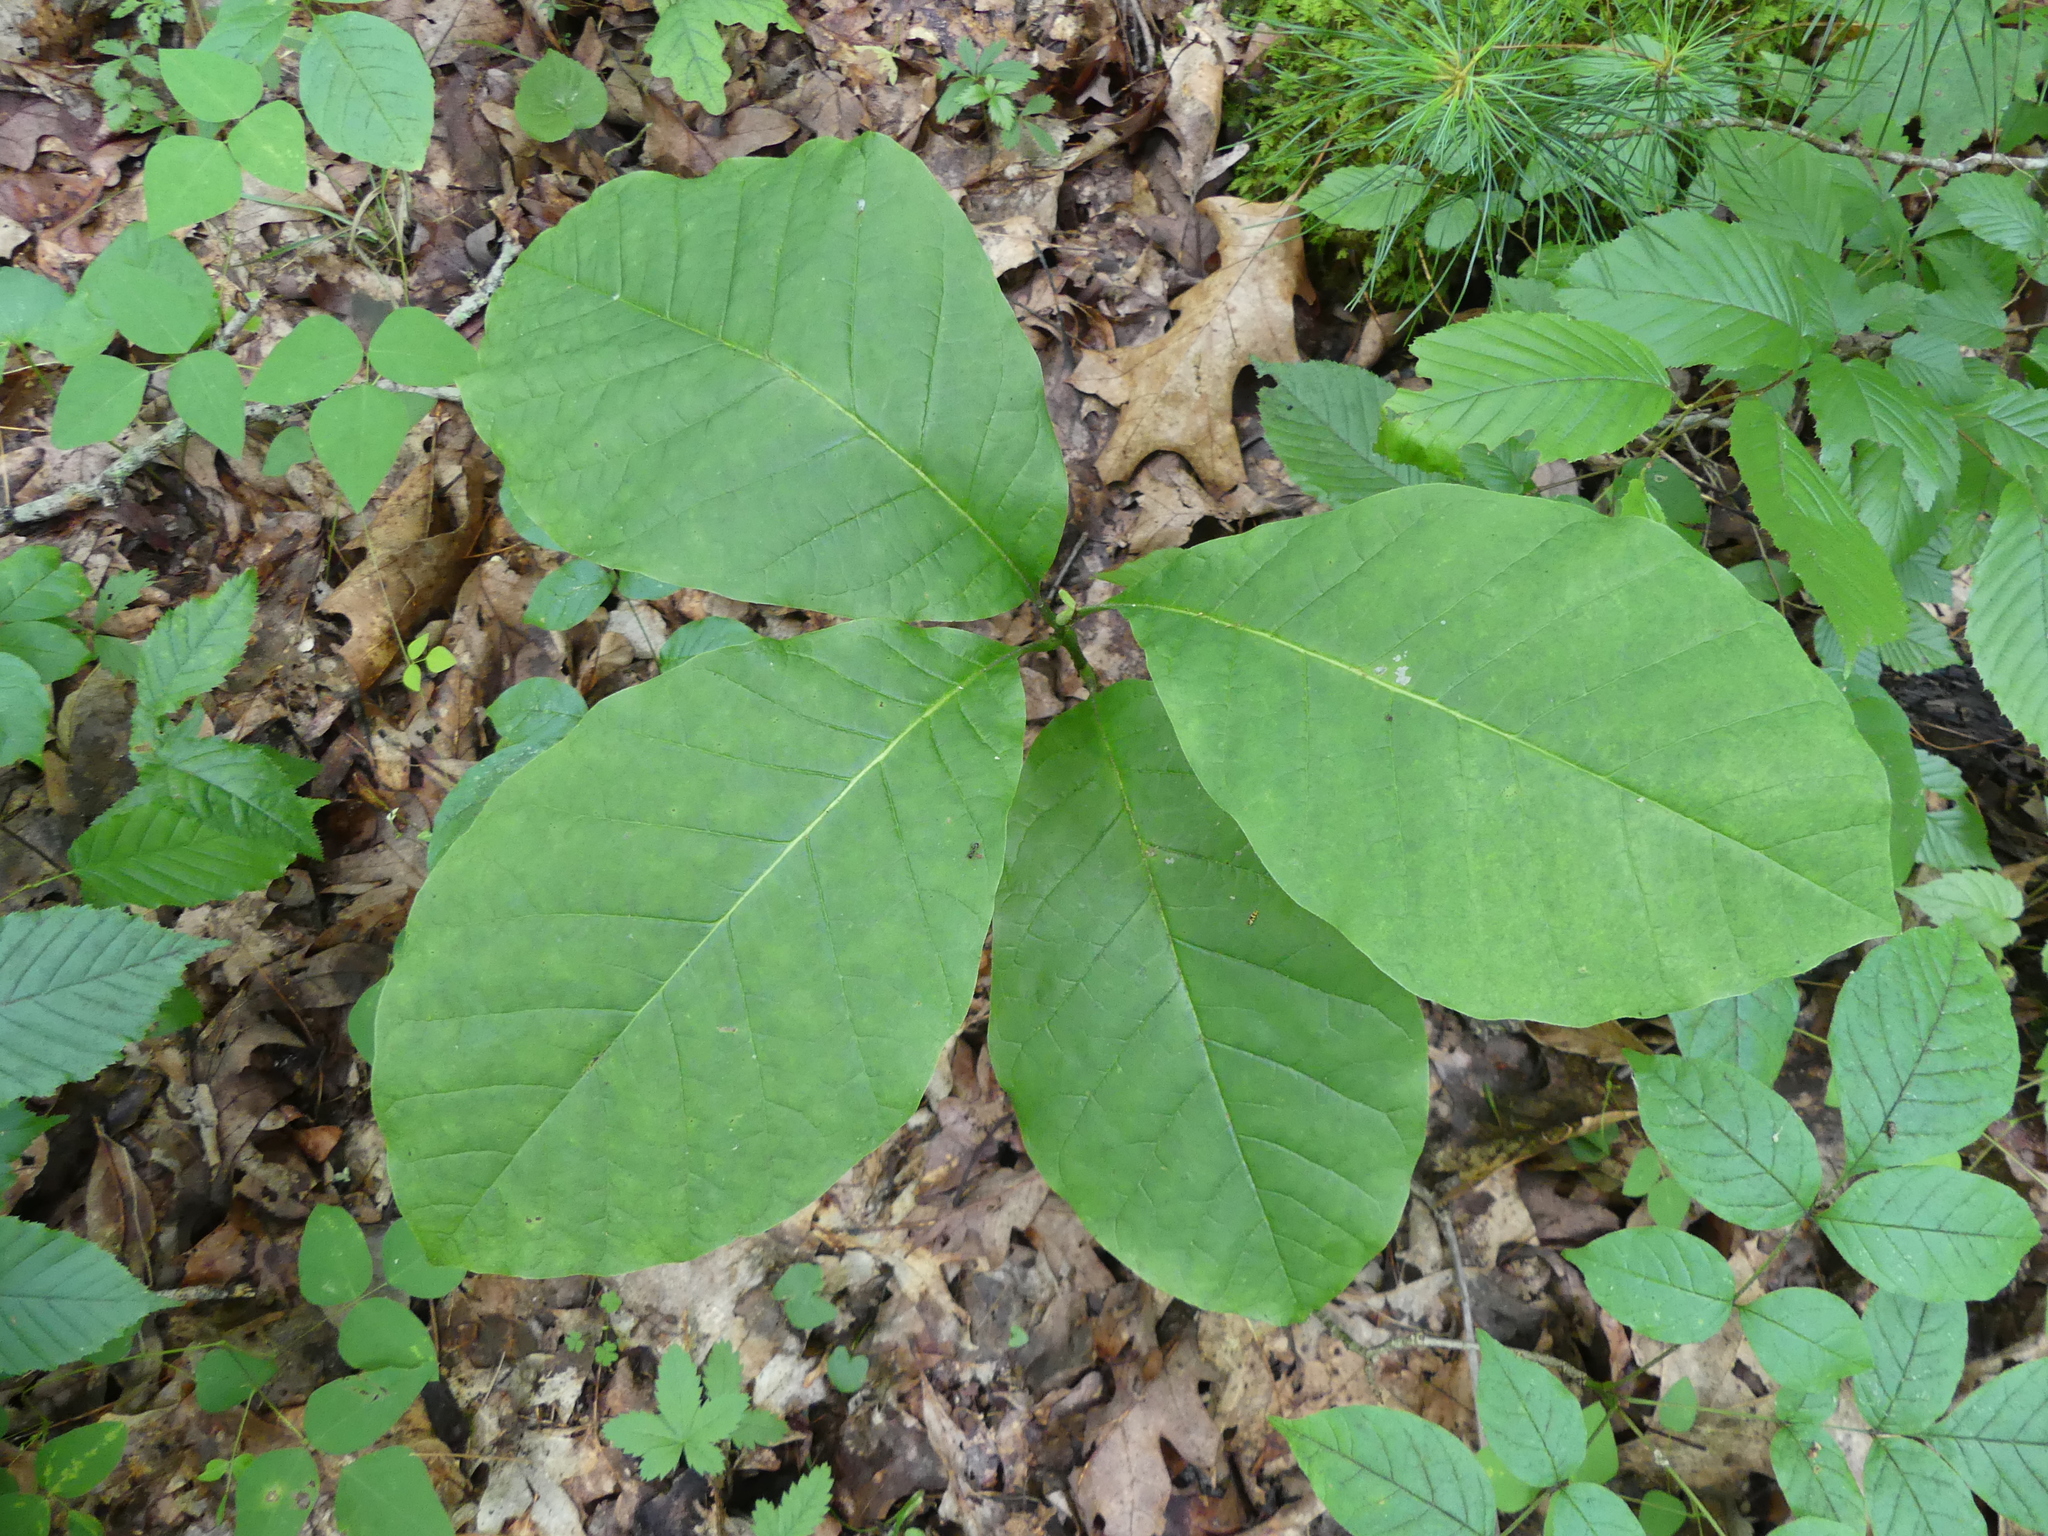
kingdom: Plantae
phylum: Tracheophyta
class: Magnoliopsida
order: Magnoliales
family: Magnoliaceae
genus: Magnolia
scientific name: Magnolia acuminata
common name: Cucumber magnolia
